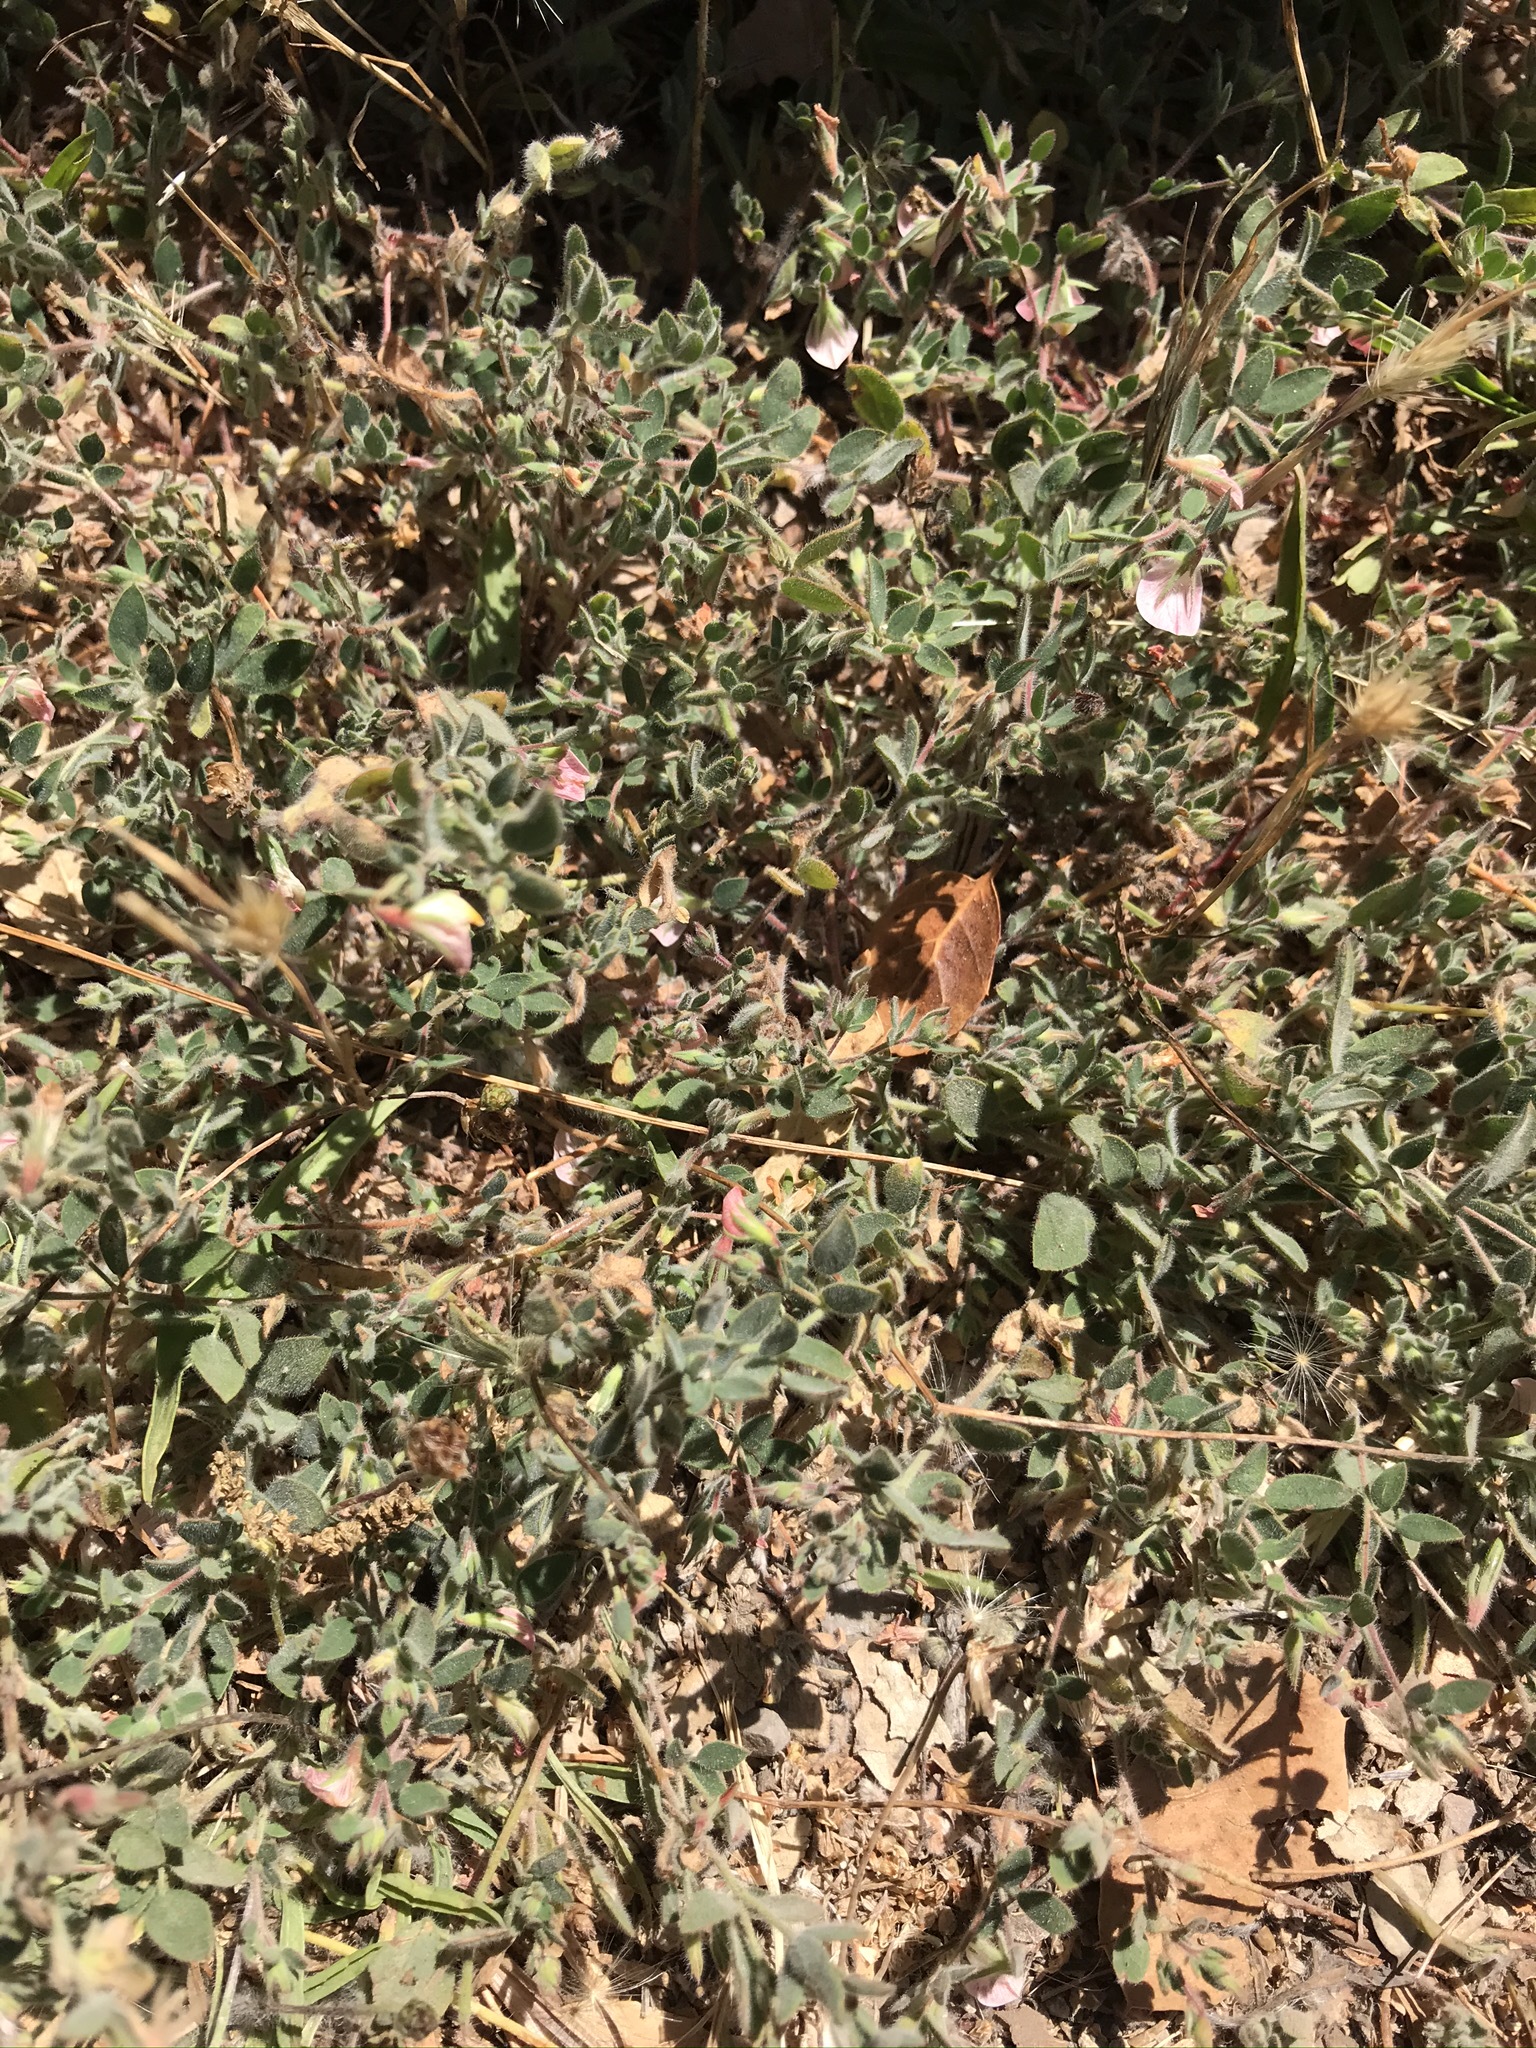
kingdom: Plantae
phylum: Tracheophyta
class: Magnoliopsida
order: Fabales
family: Fabaceae
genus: Acmispon
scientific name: Acmispon americanus
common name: American bird's-foot trefoil
